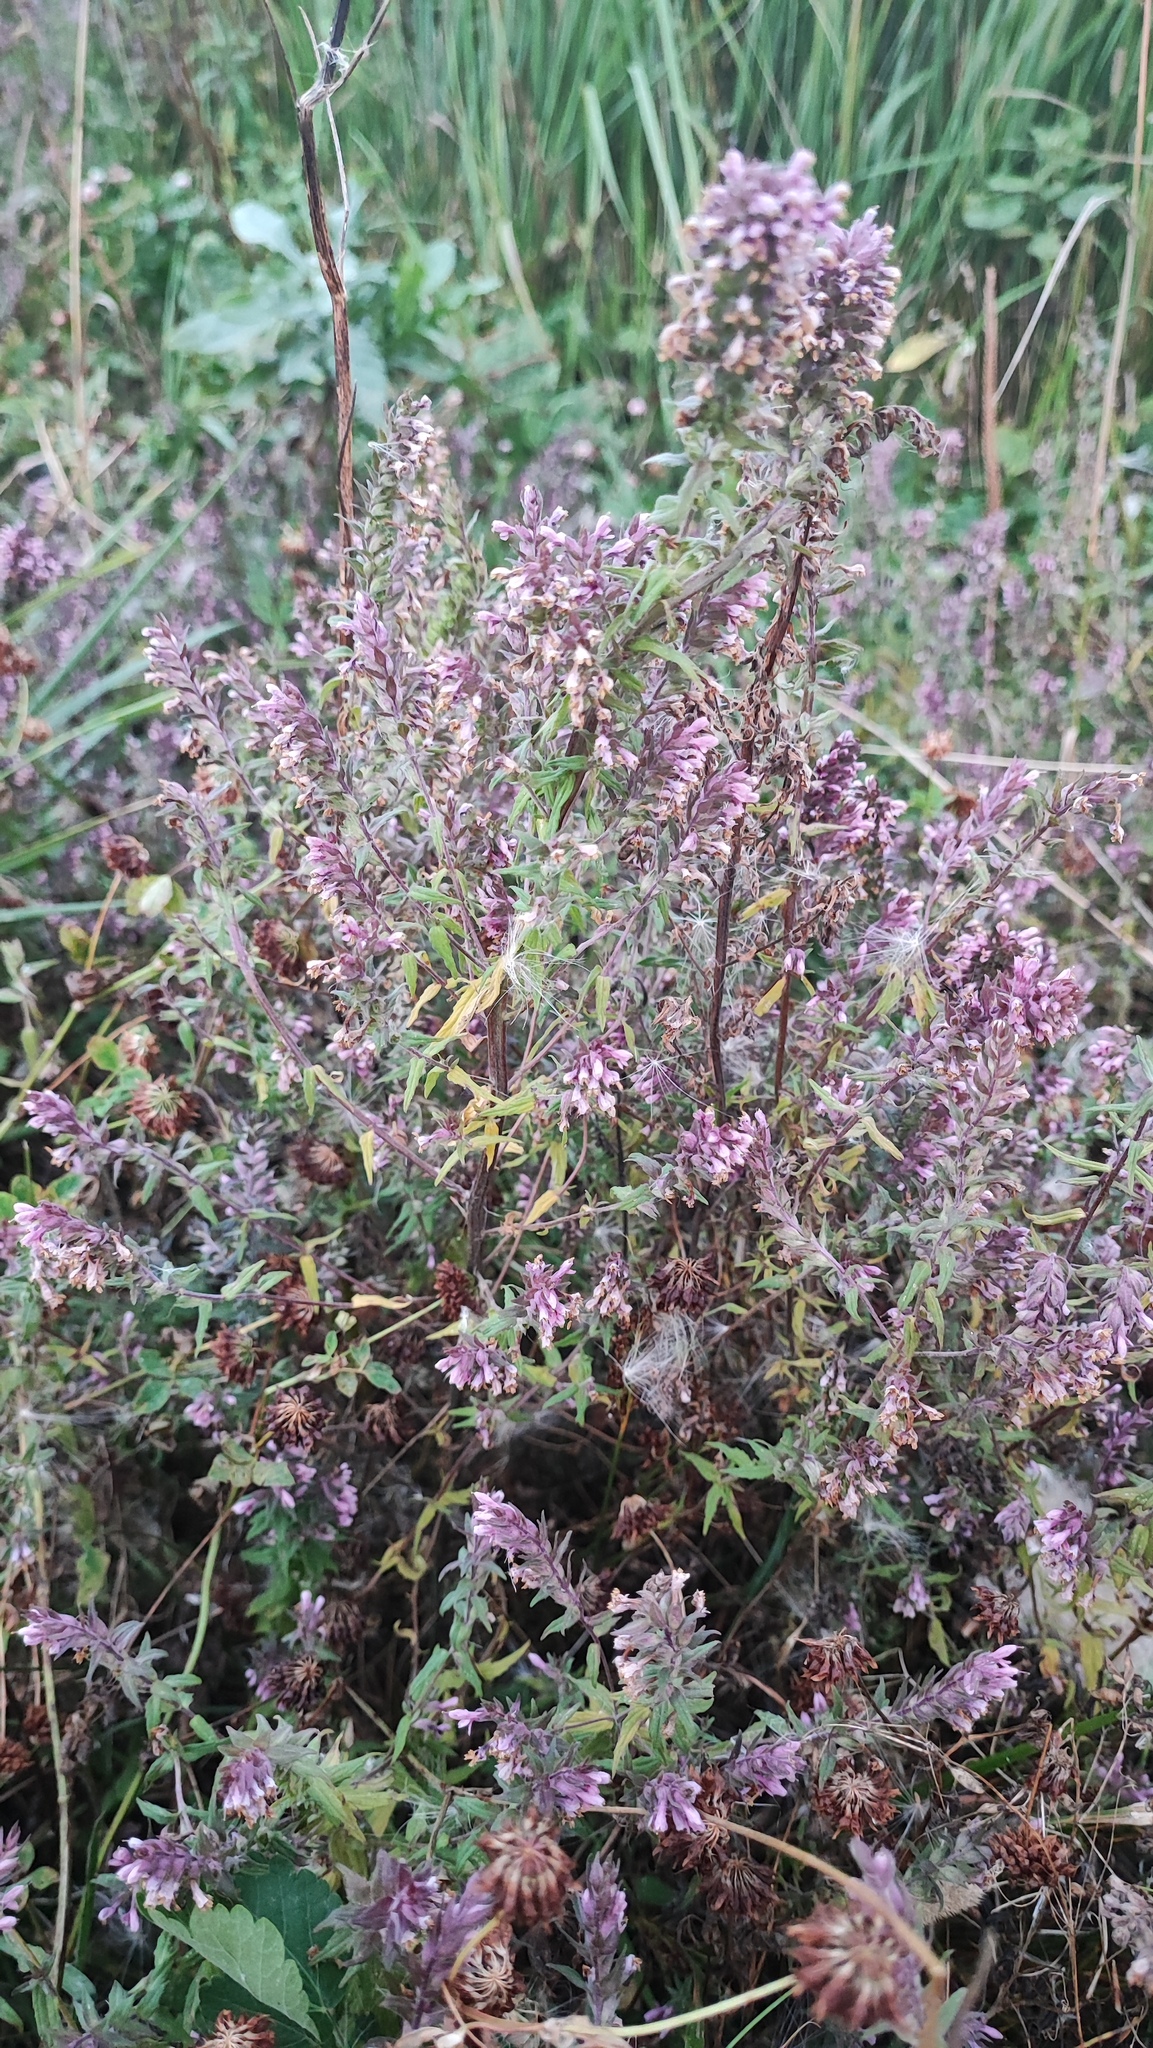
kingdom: Plantae
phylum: Tracheophyta
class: Magnoliopsida
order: Lamiales
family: Orobanchaceae
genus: Odontites
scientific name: Odontites vulgaris
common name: Broomrape
